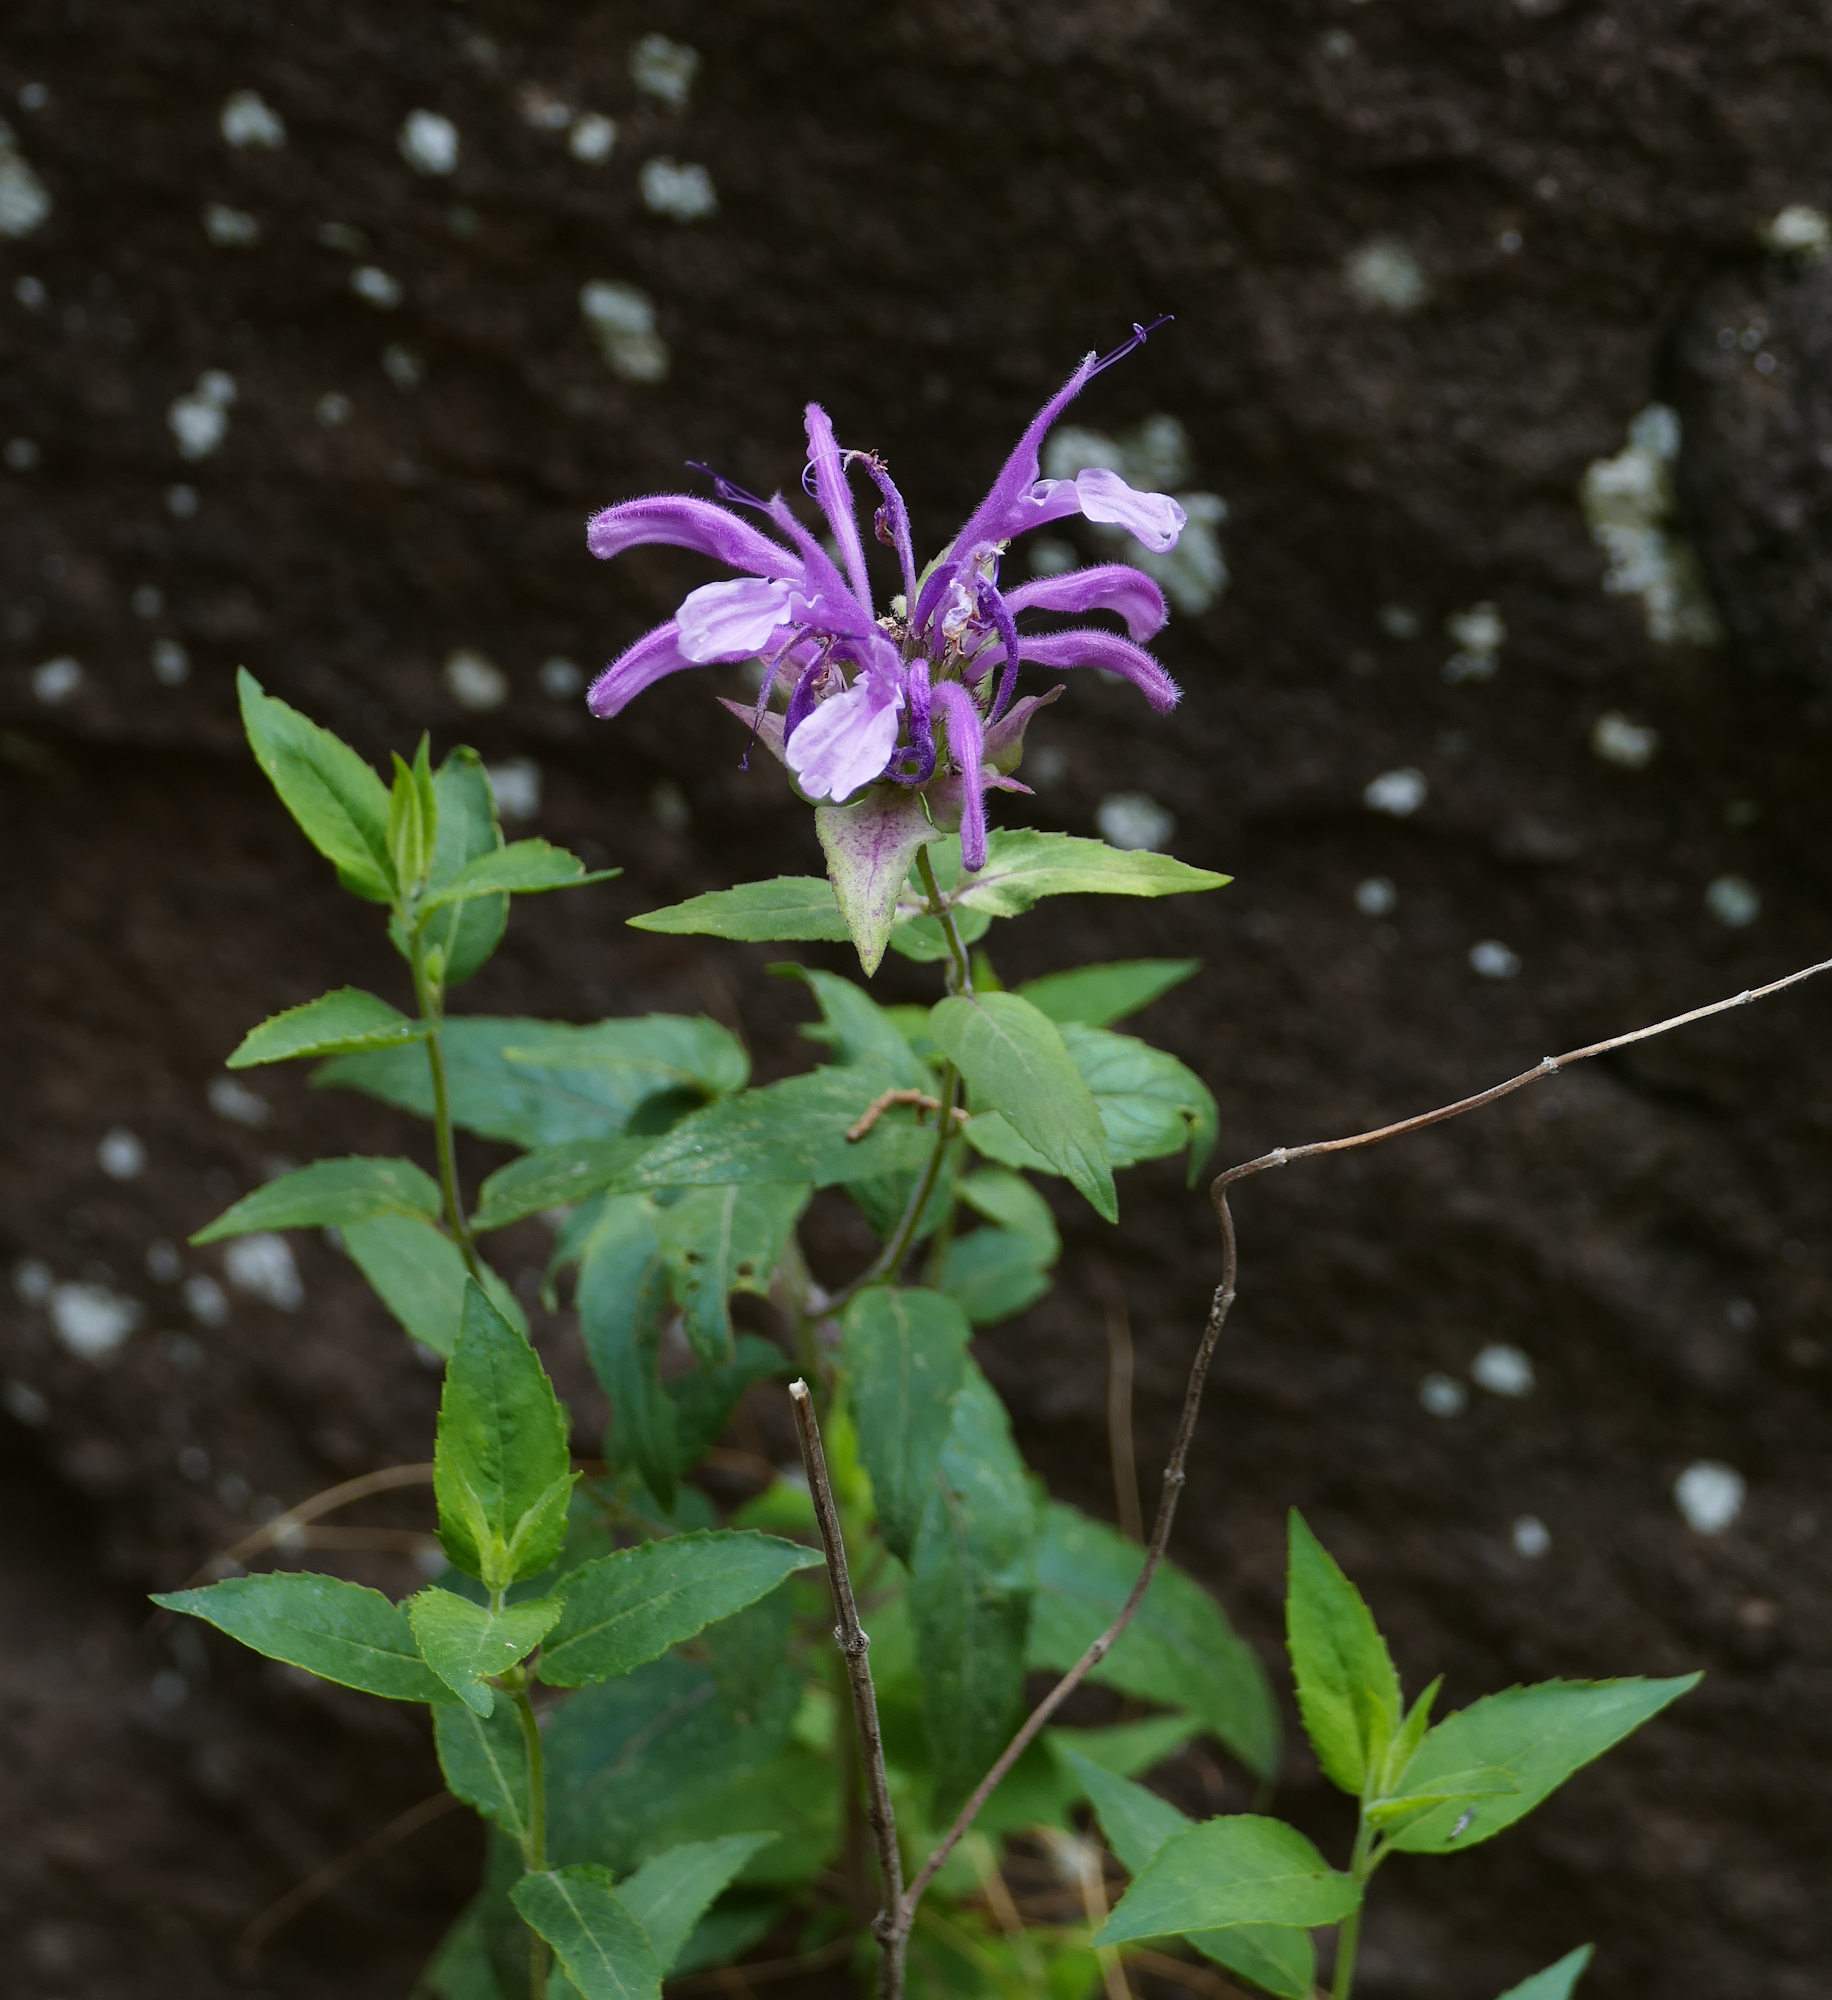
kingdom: Plantae
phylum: Tracheophyta
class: Magnoliopsida
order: Lamiales
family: Lamiaceae
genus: Monarda
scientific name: Monarda fistulosa
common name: Purple beebalm
